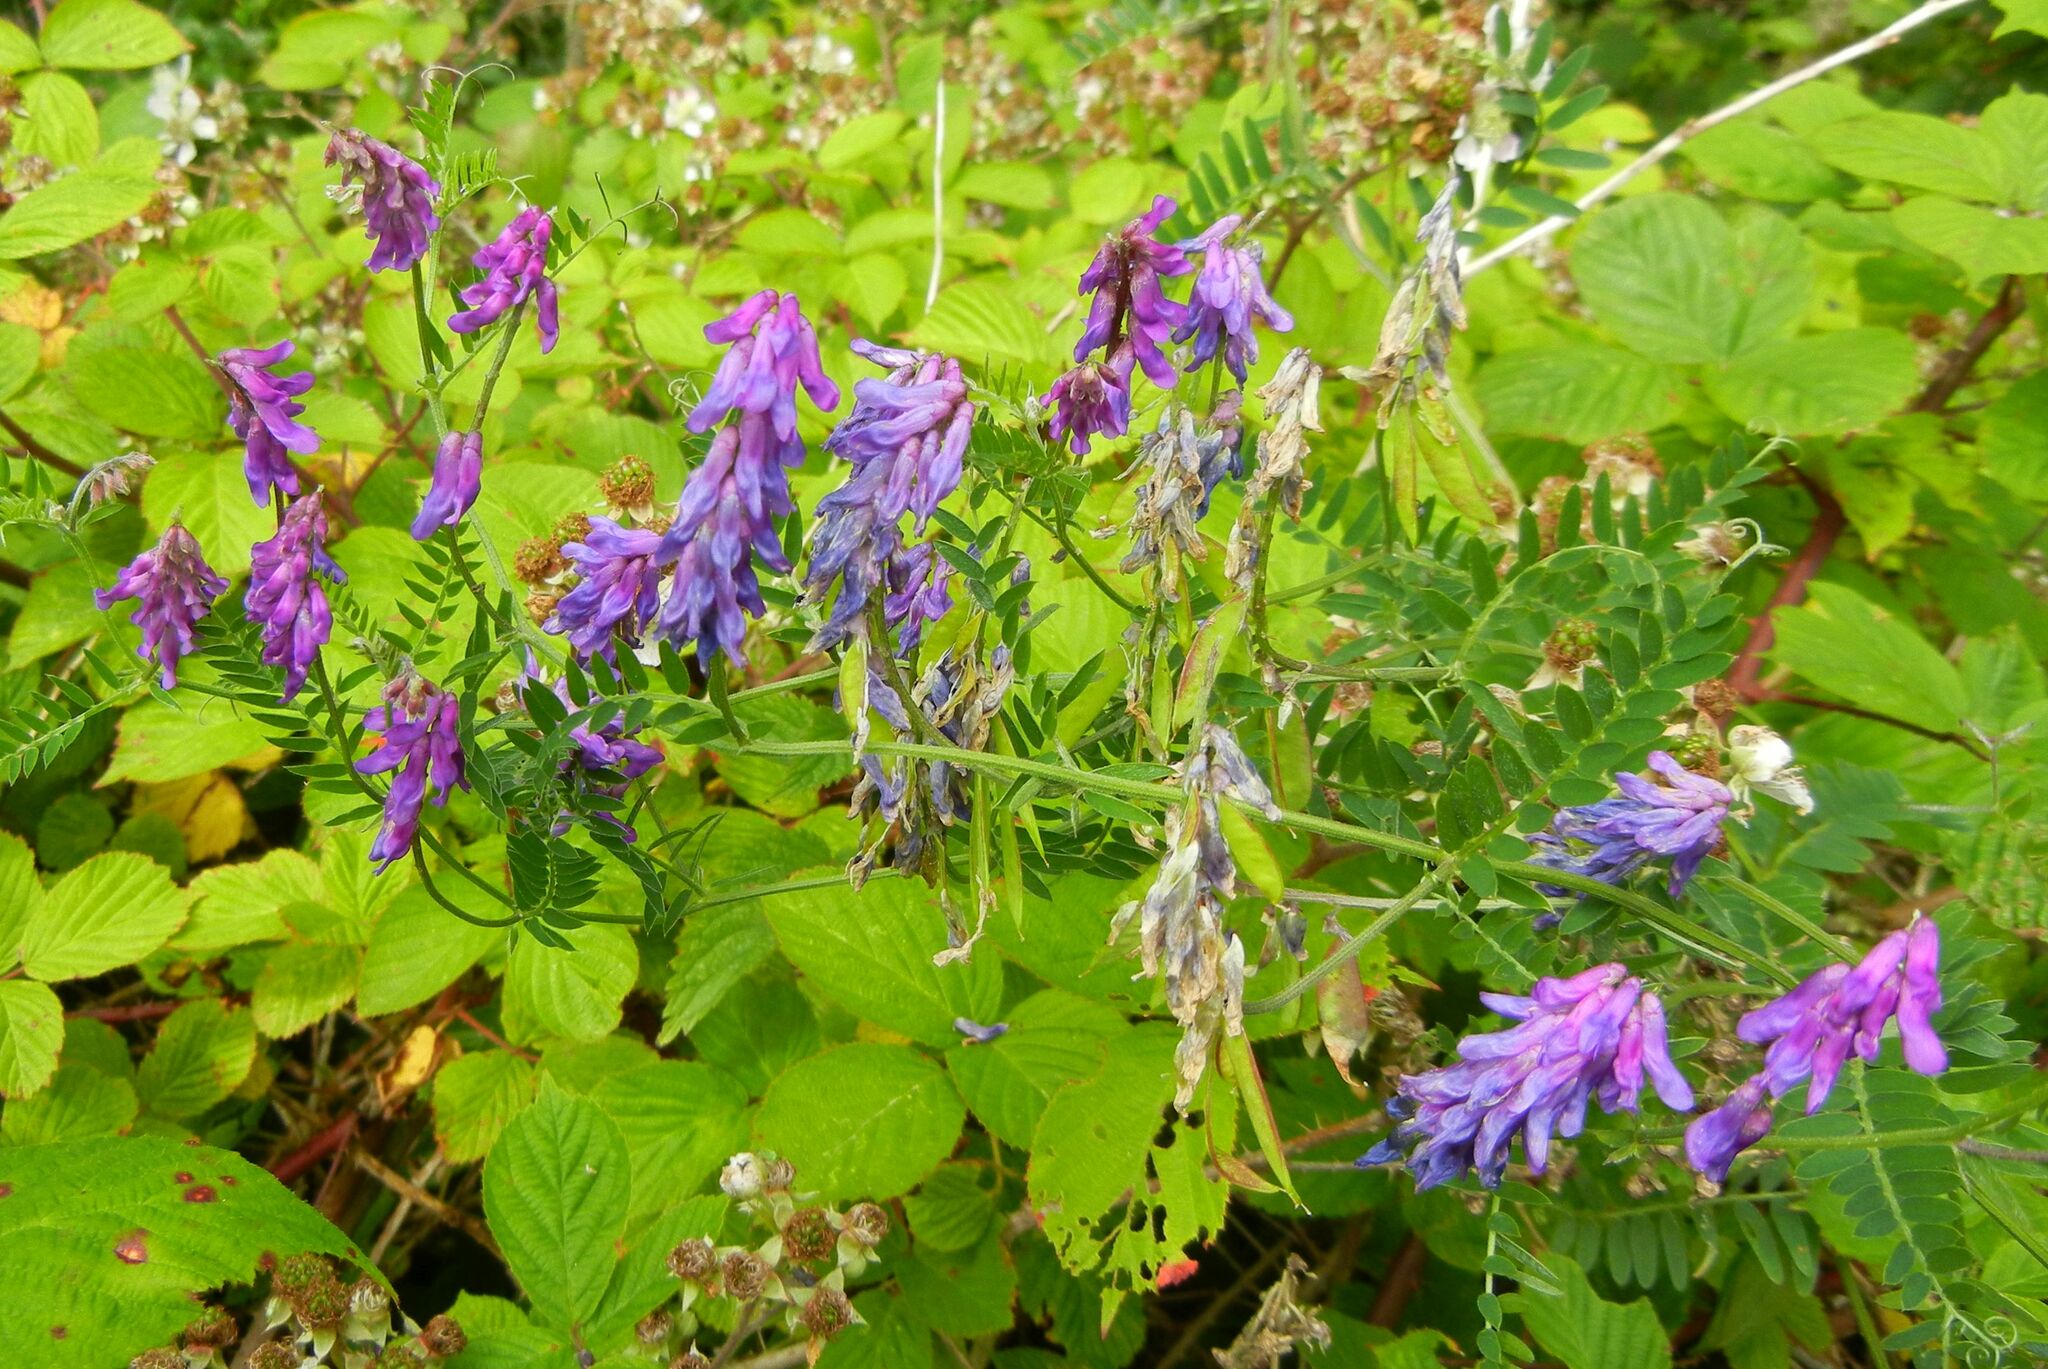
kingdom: Plantae
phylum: Tracheophyta
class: Magnoliopsida
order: Fabales
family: Fabaceae
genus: Vicia
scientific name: Vicia cracca
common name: Bird vetch
